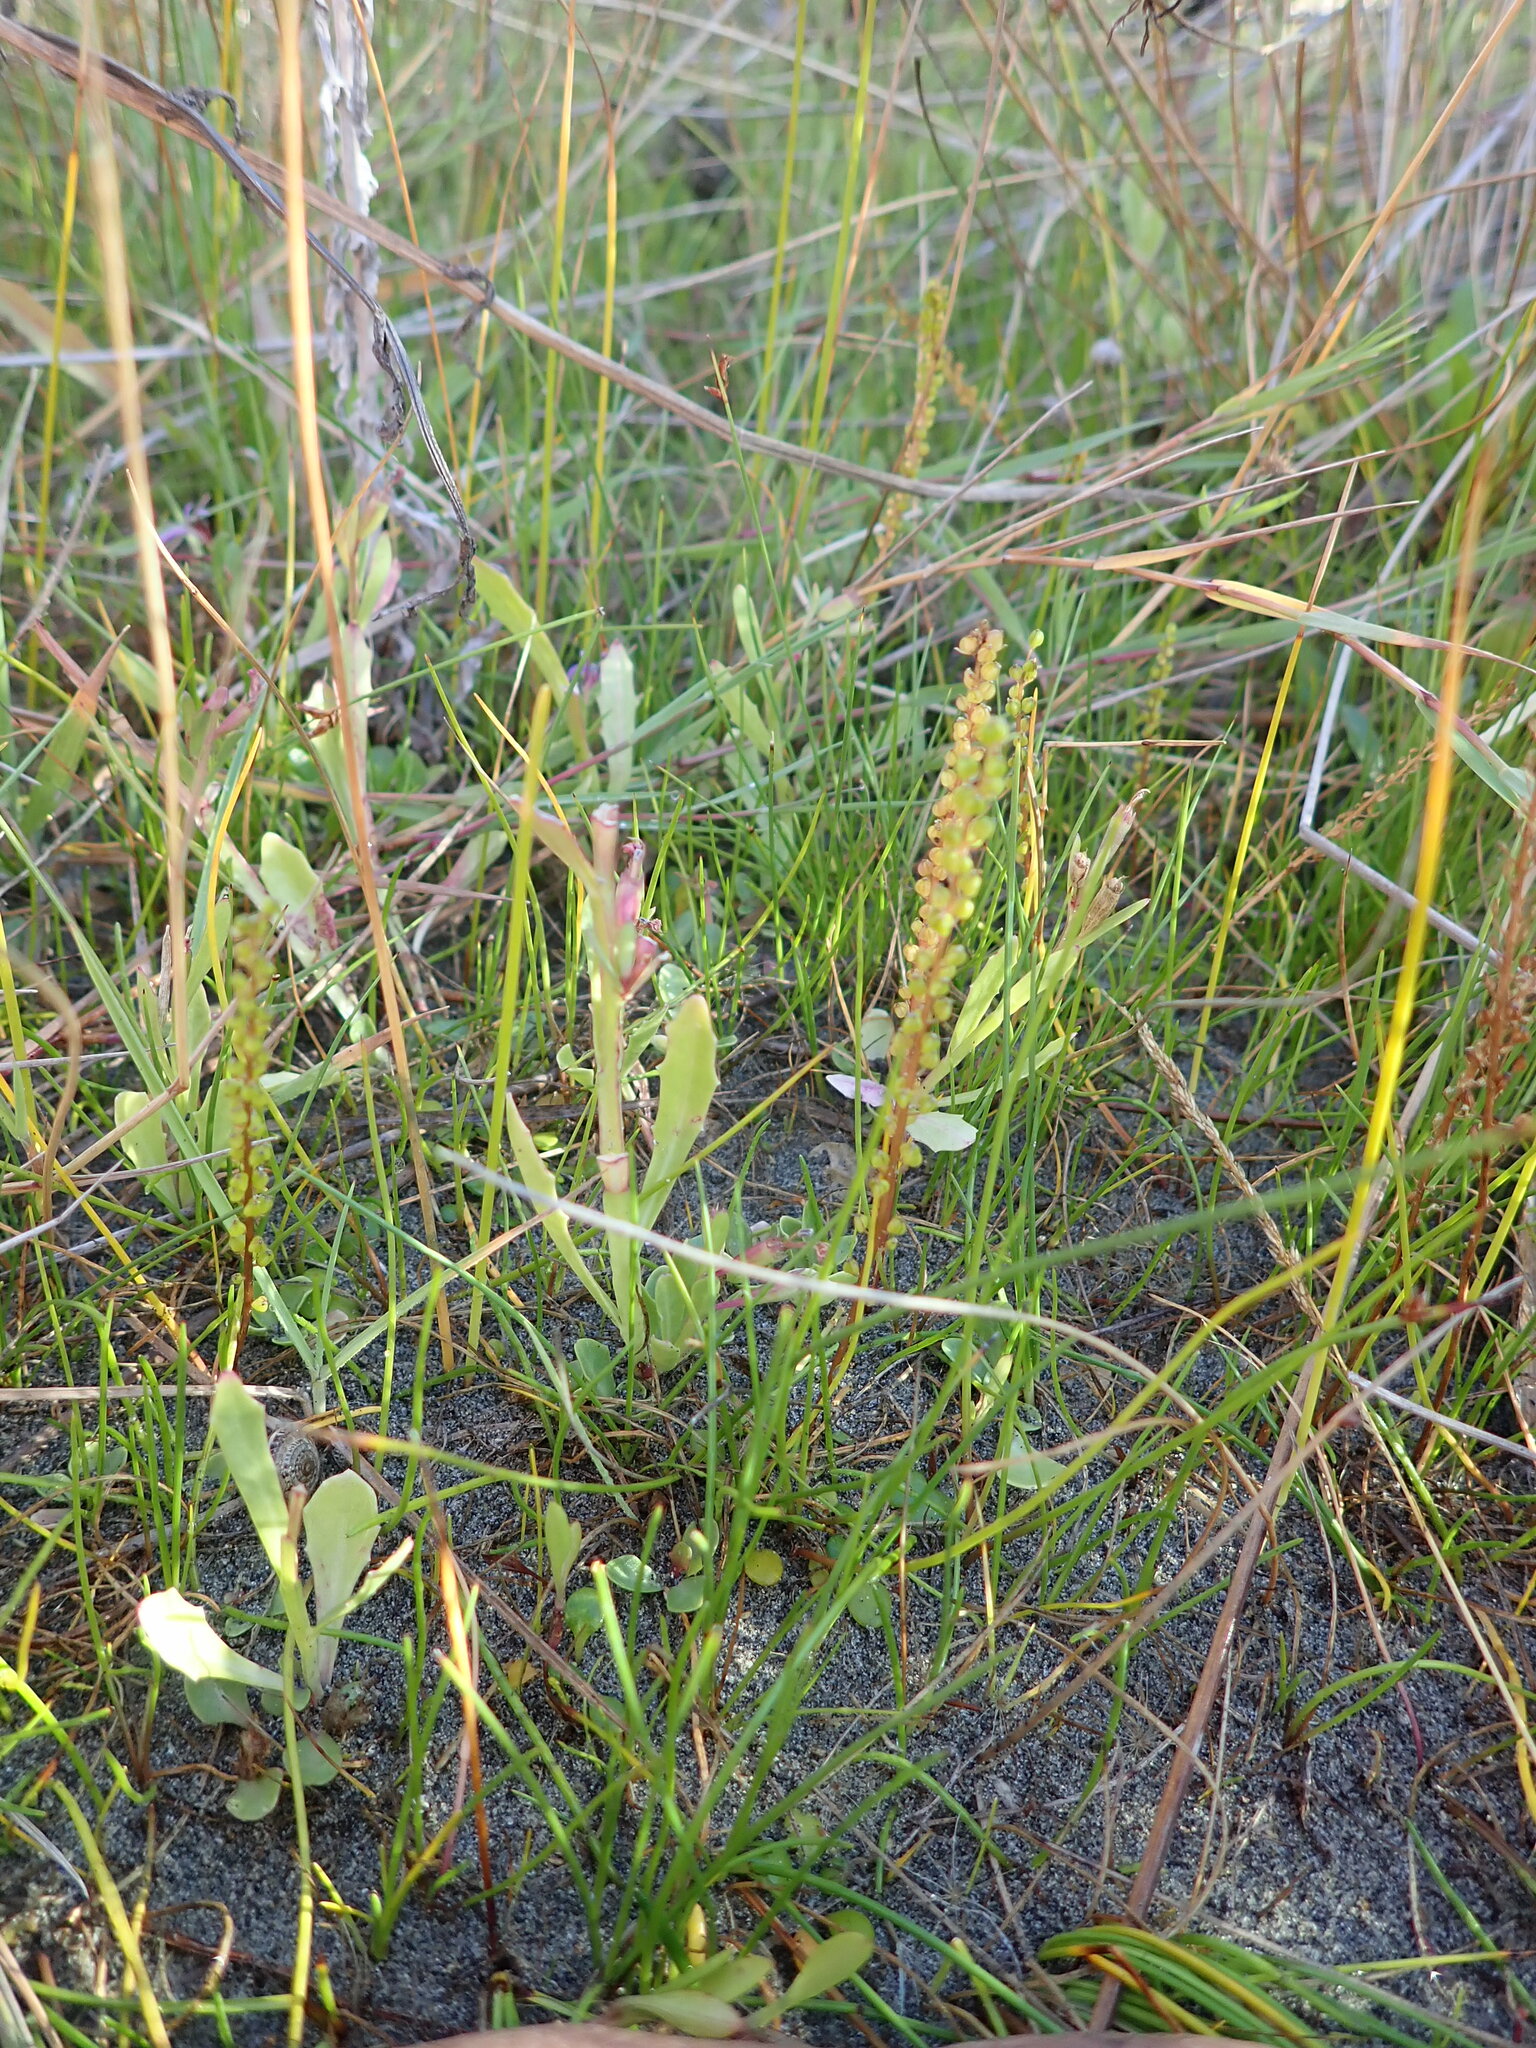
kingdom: Plantae
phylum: Tracheophyta
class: Liliopsida
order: Alismatales
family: Juncaginaceae
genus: Triglochin
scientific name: Triglochin striata
